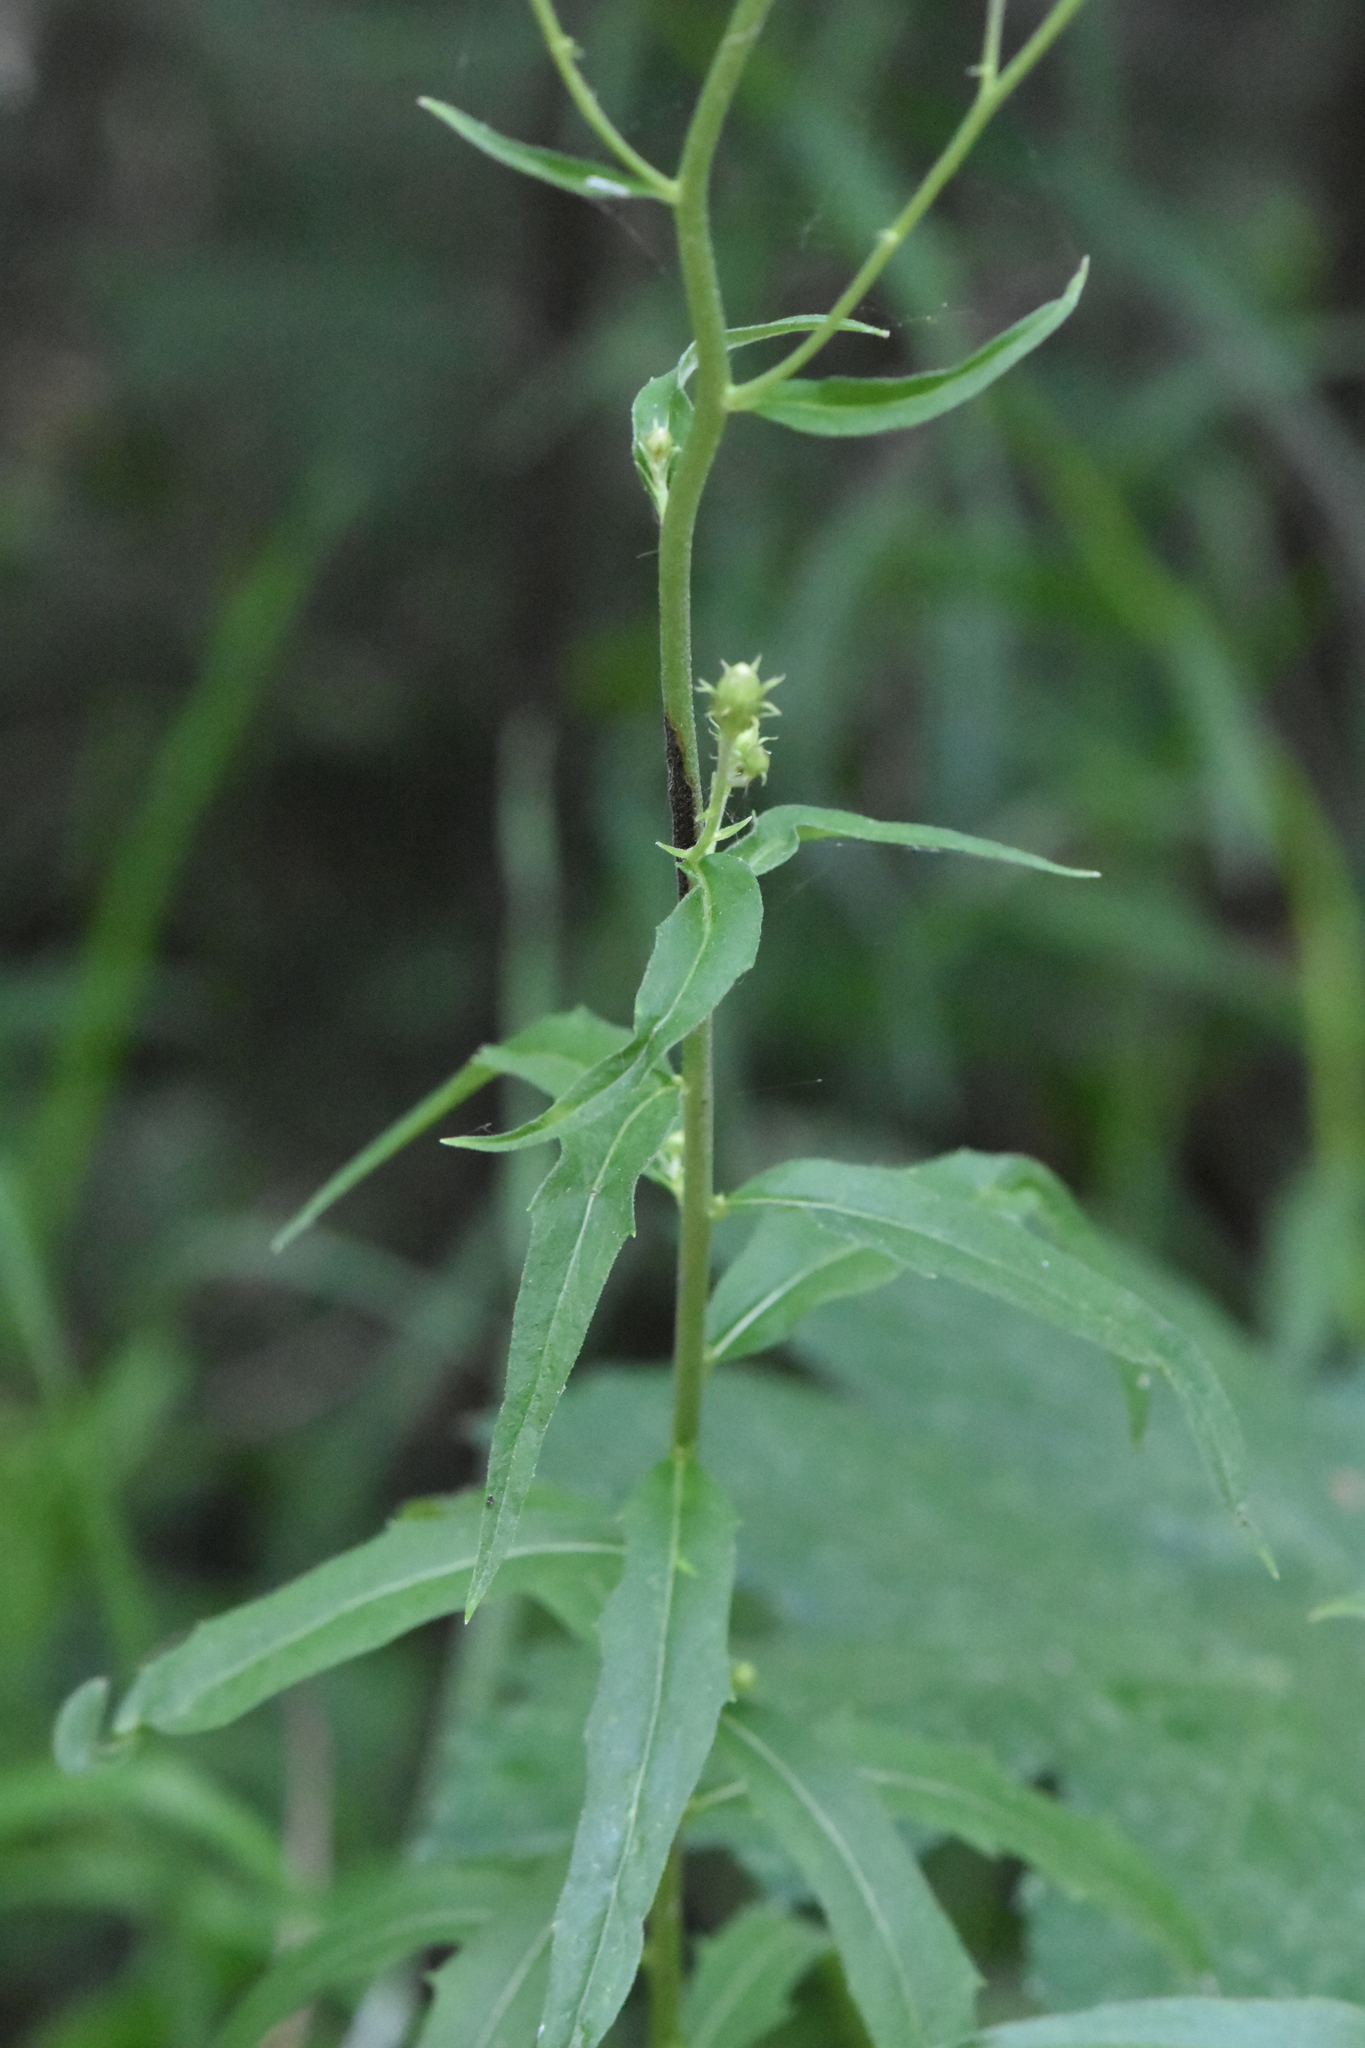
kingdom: Plantae
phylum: Tracheophyta
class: Magnoliopsida
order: Asterales
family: Asteraceae
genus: Hieracium
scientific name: Hieracium umbellatum
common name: Northern hawkweed
